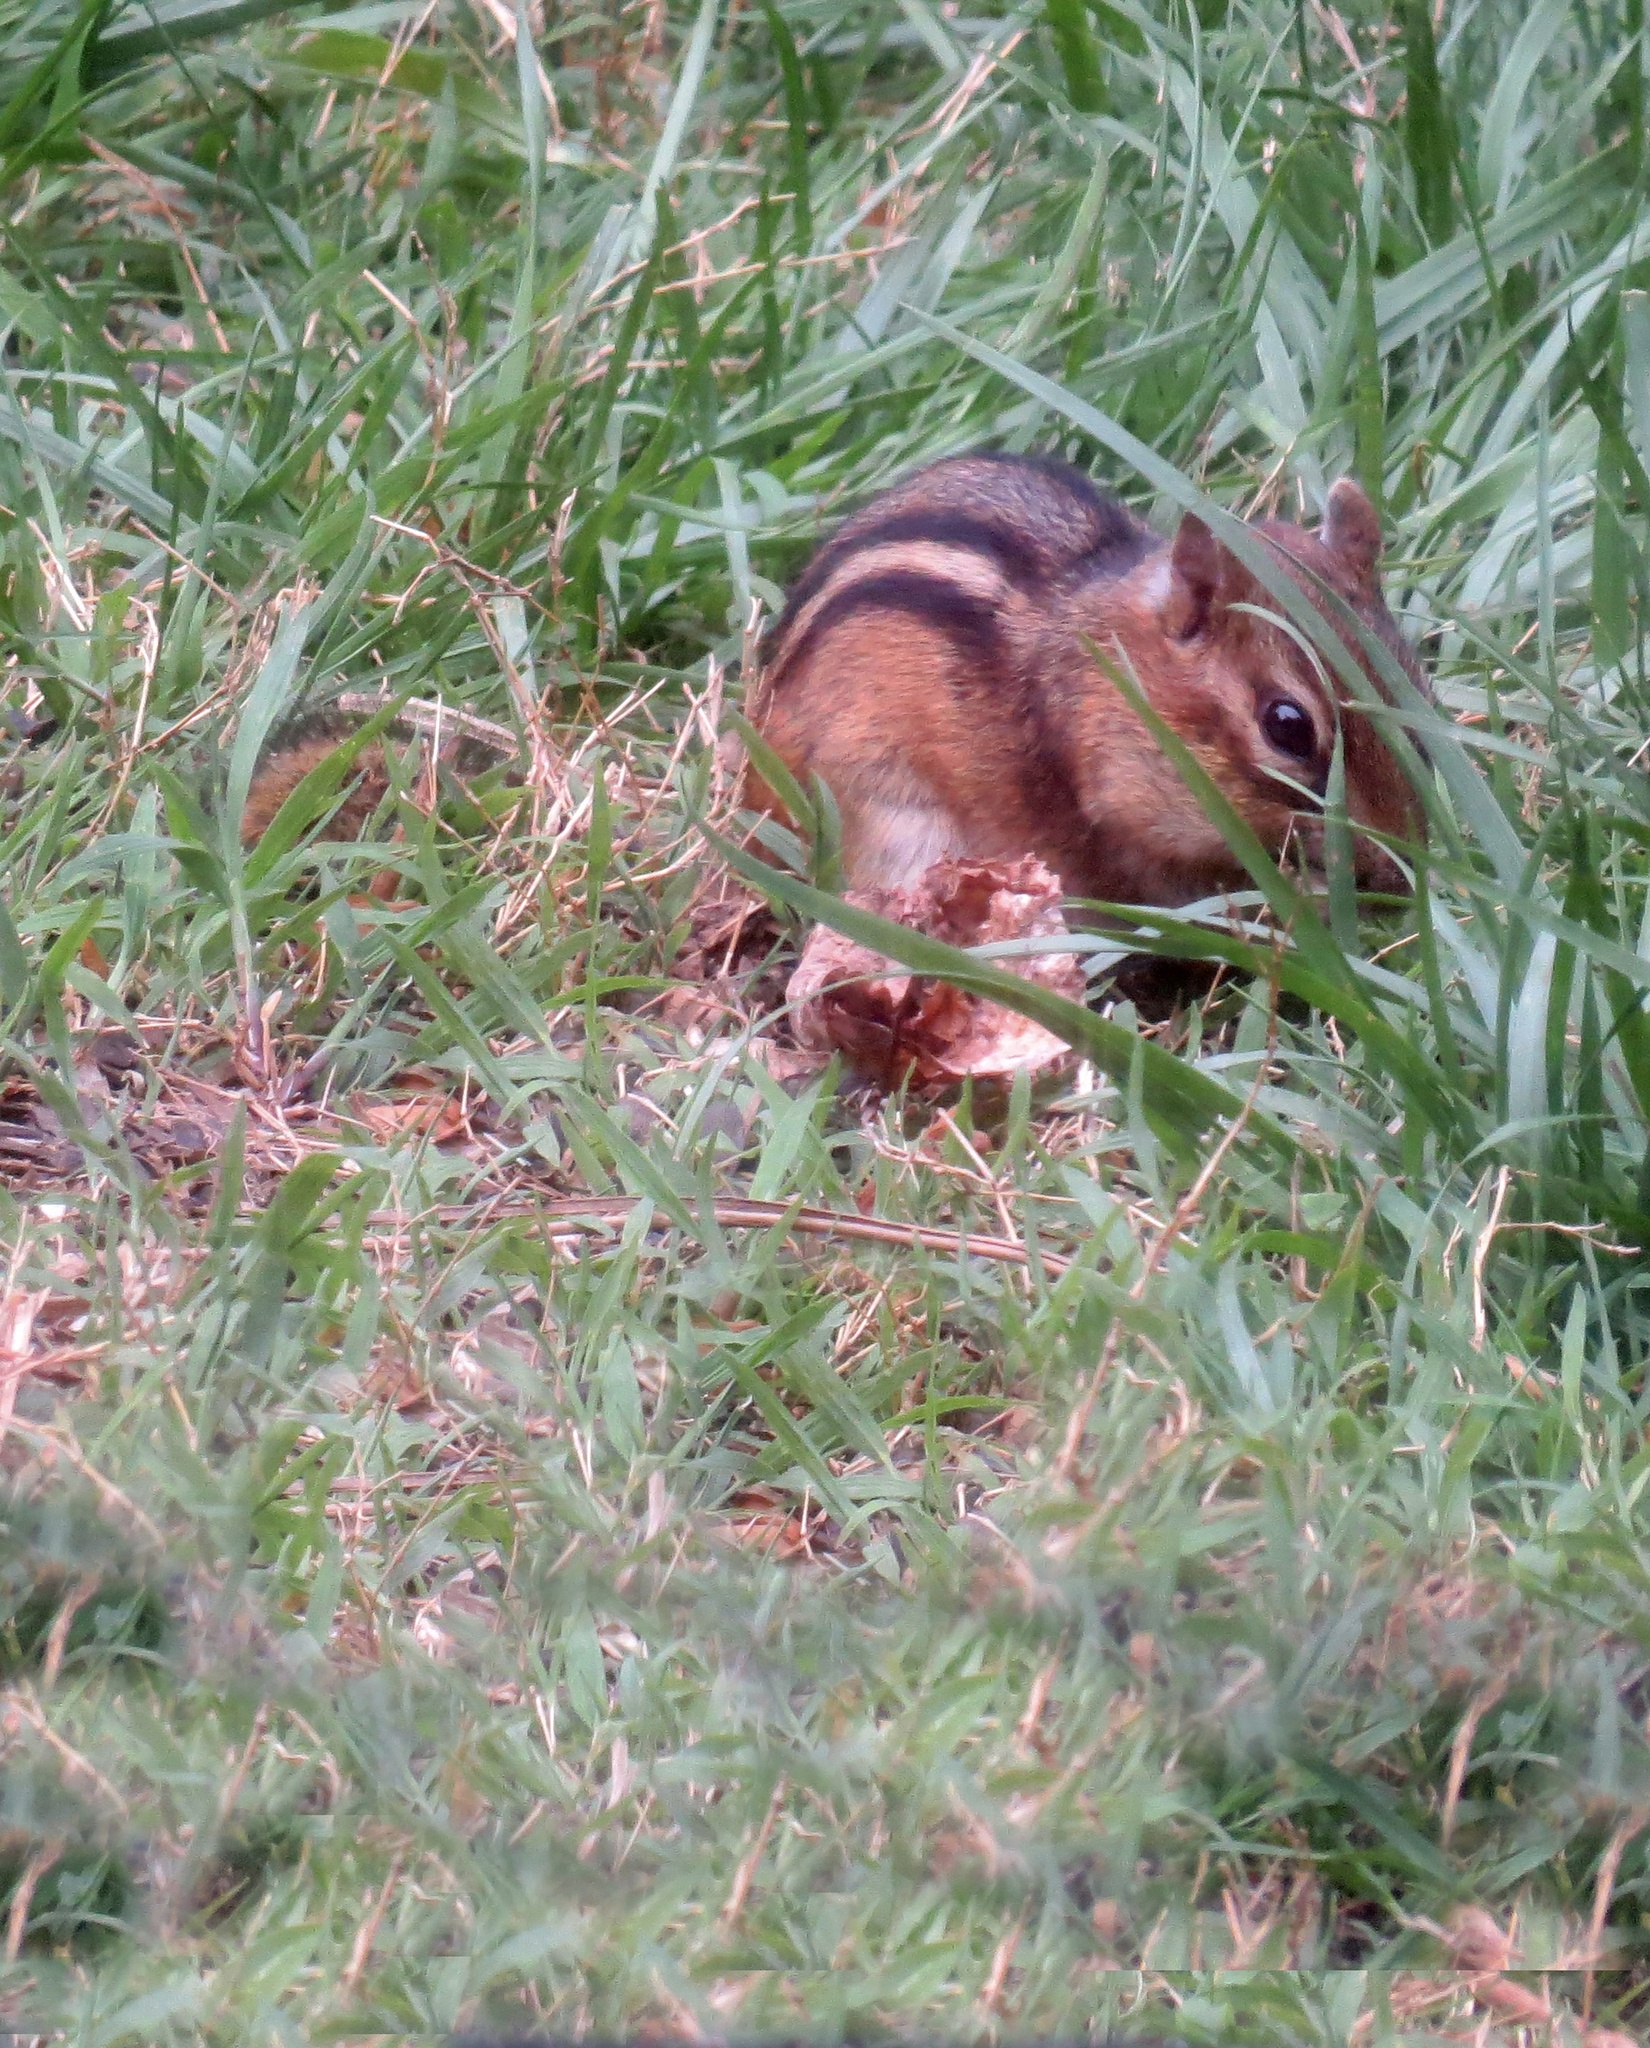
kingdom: Animalia
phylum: Chordata
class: Mammalia
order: Rodentia
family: Sciuridae
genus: Tamias
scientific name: Tamias striatus
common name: Eastern chipmunk
